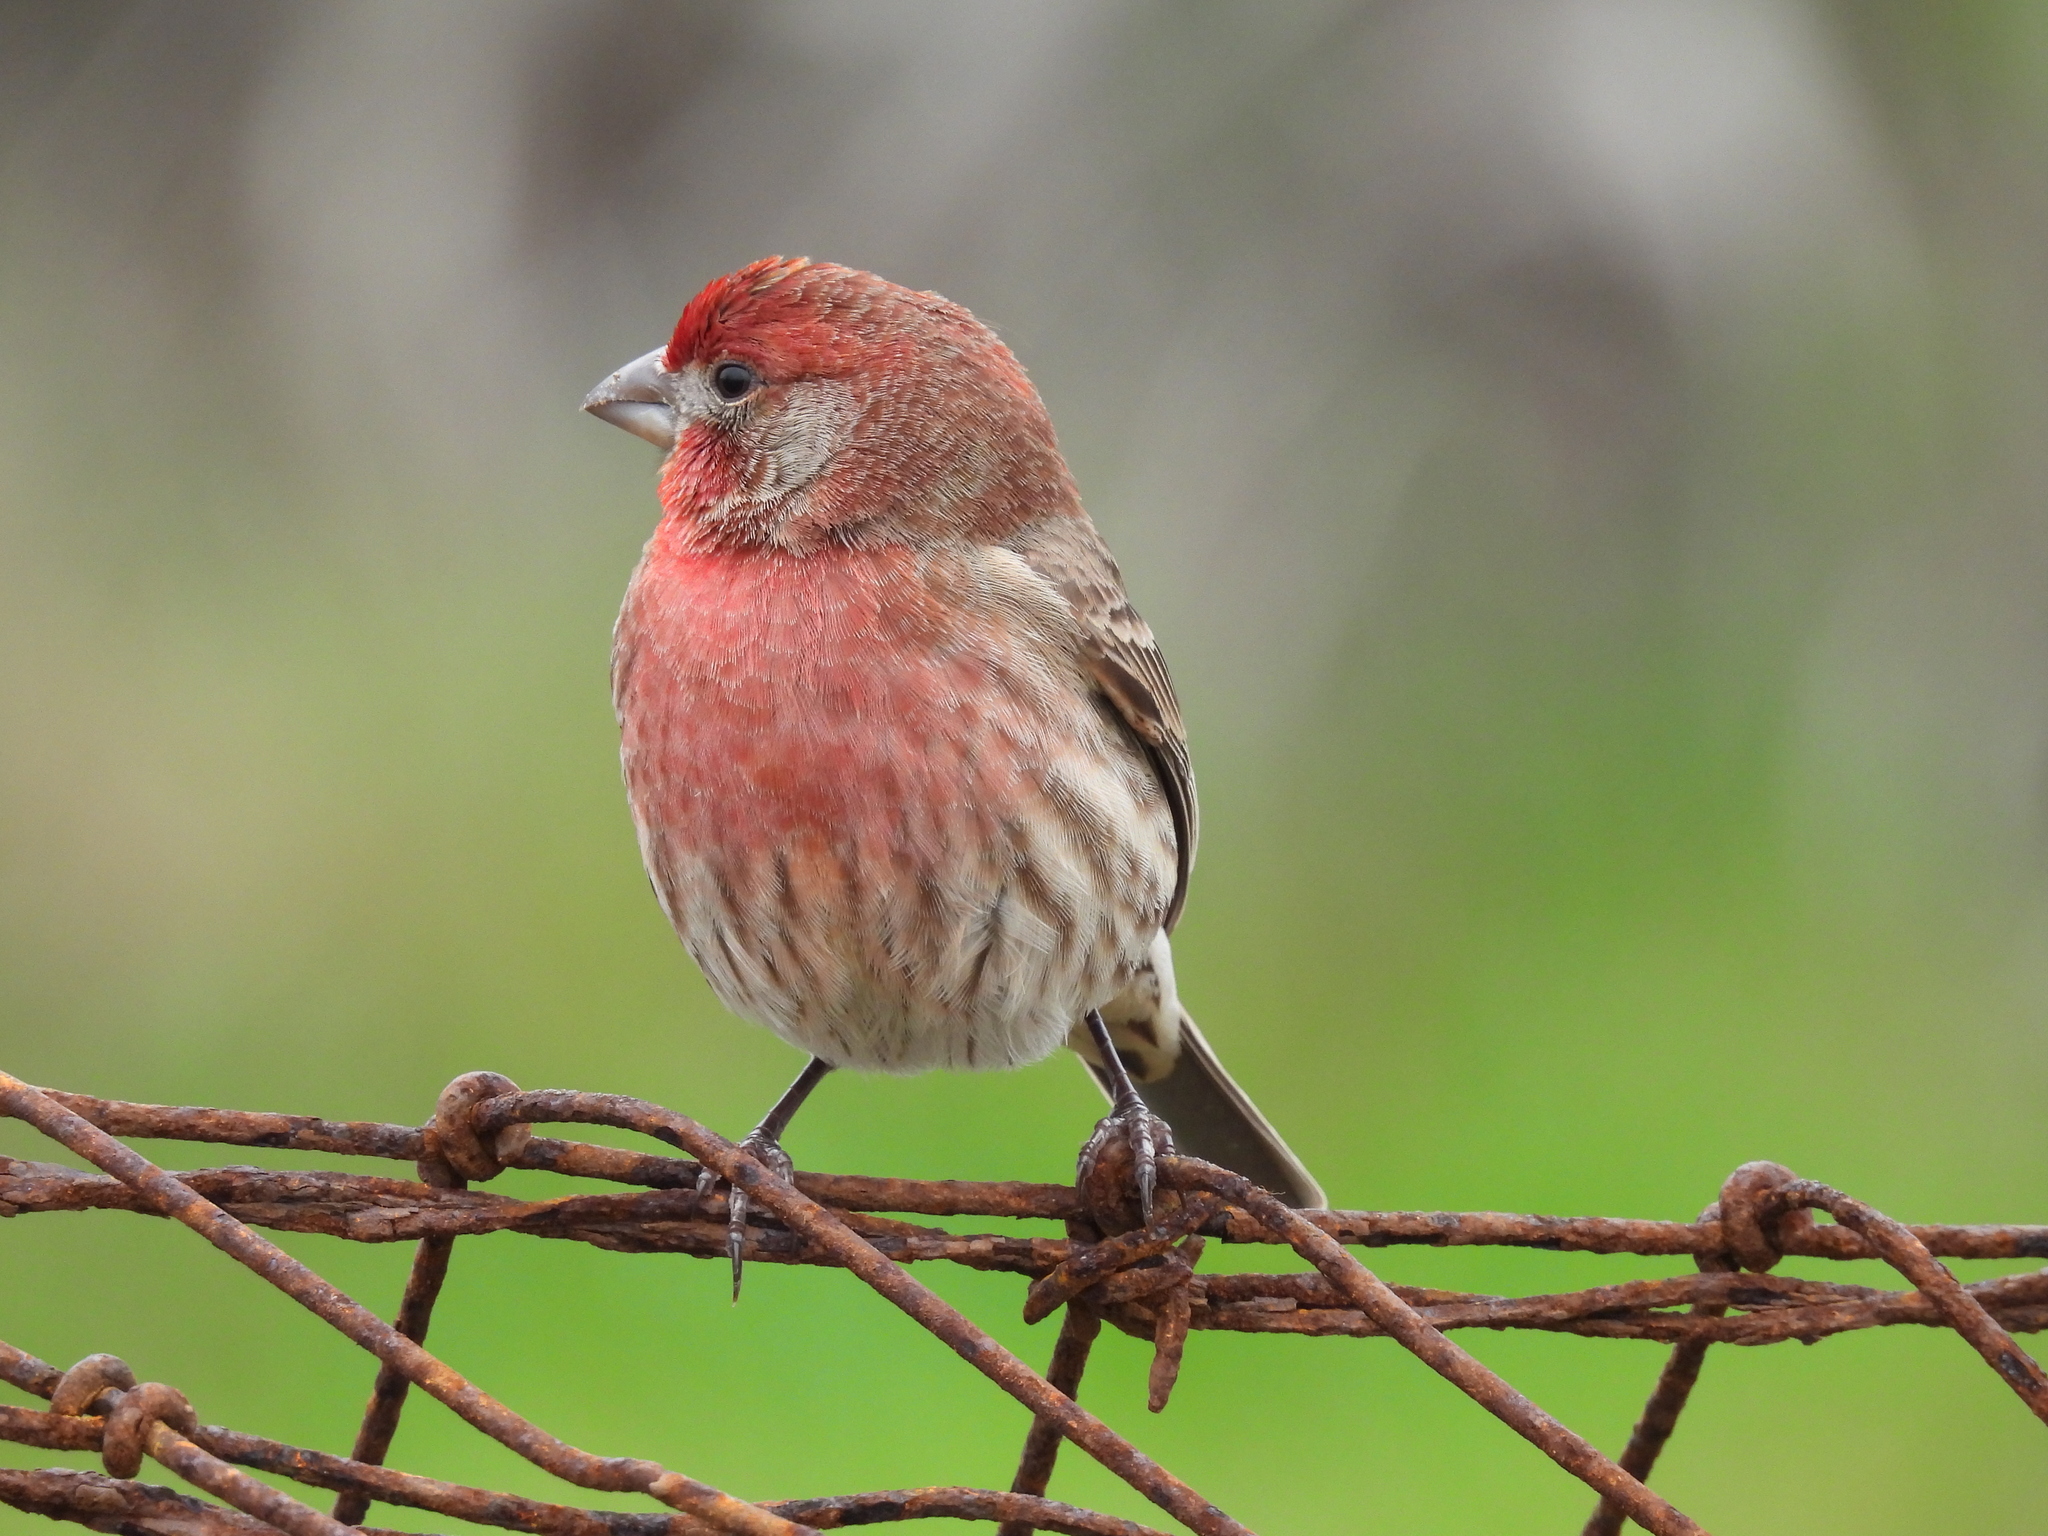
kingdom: Animalia
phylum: Chordata
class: Aves
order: Passeriformes
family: Fringillidae
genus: Haemorhous
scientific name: Haemorhous mexicanus
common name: House finch
